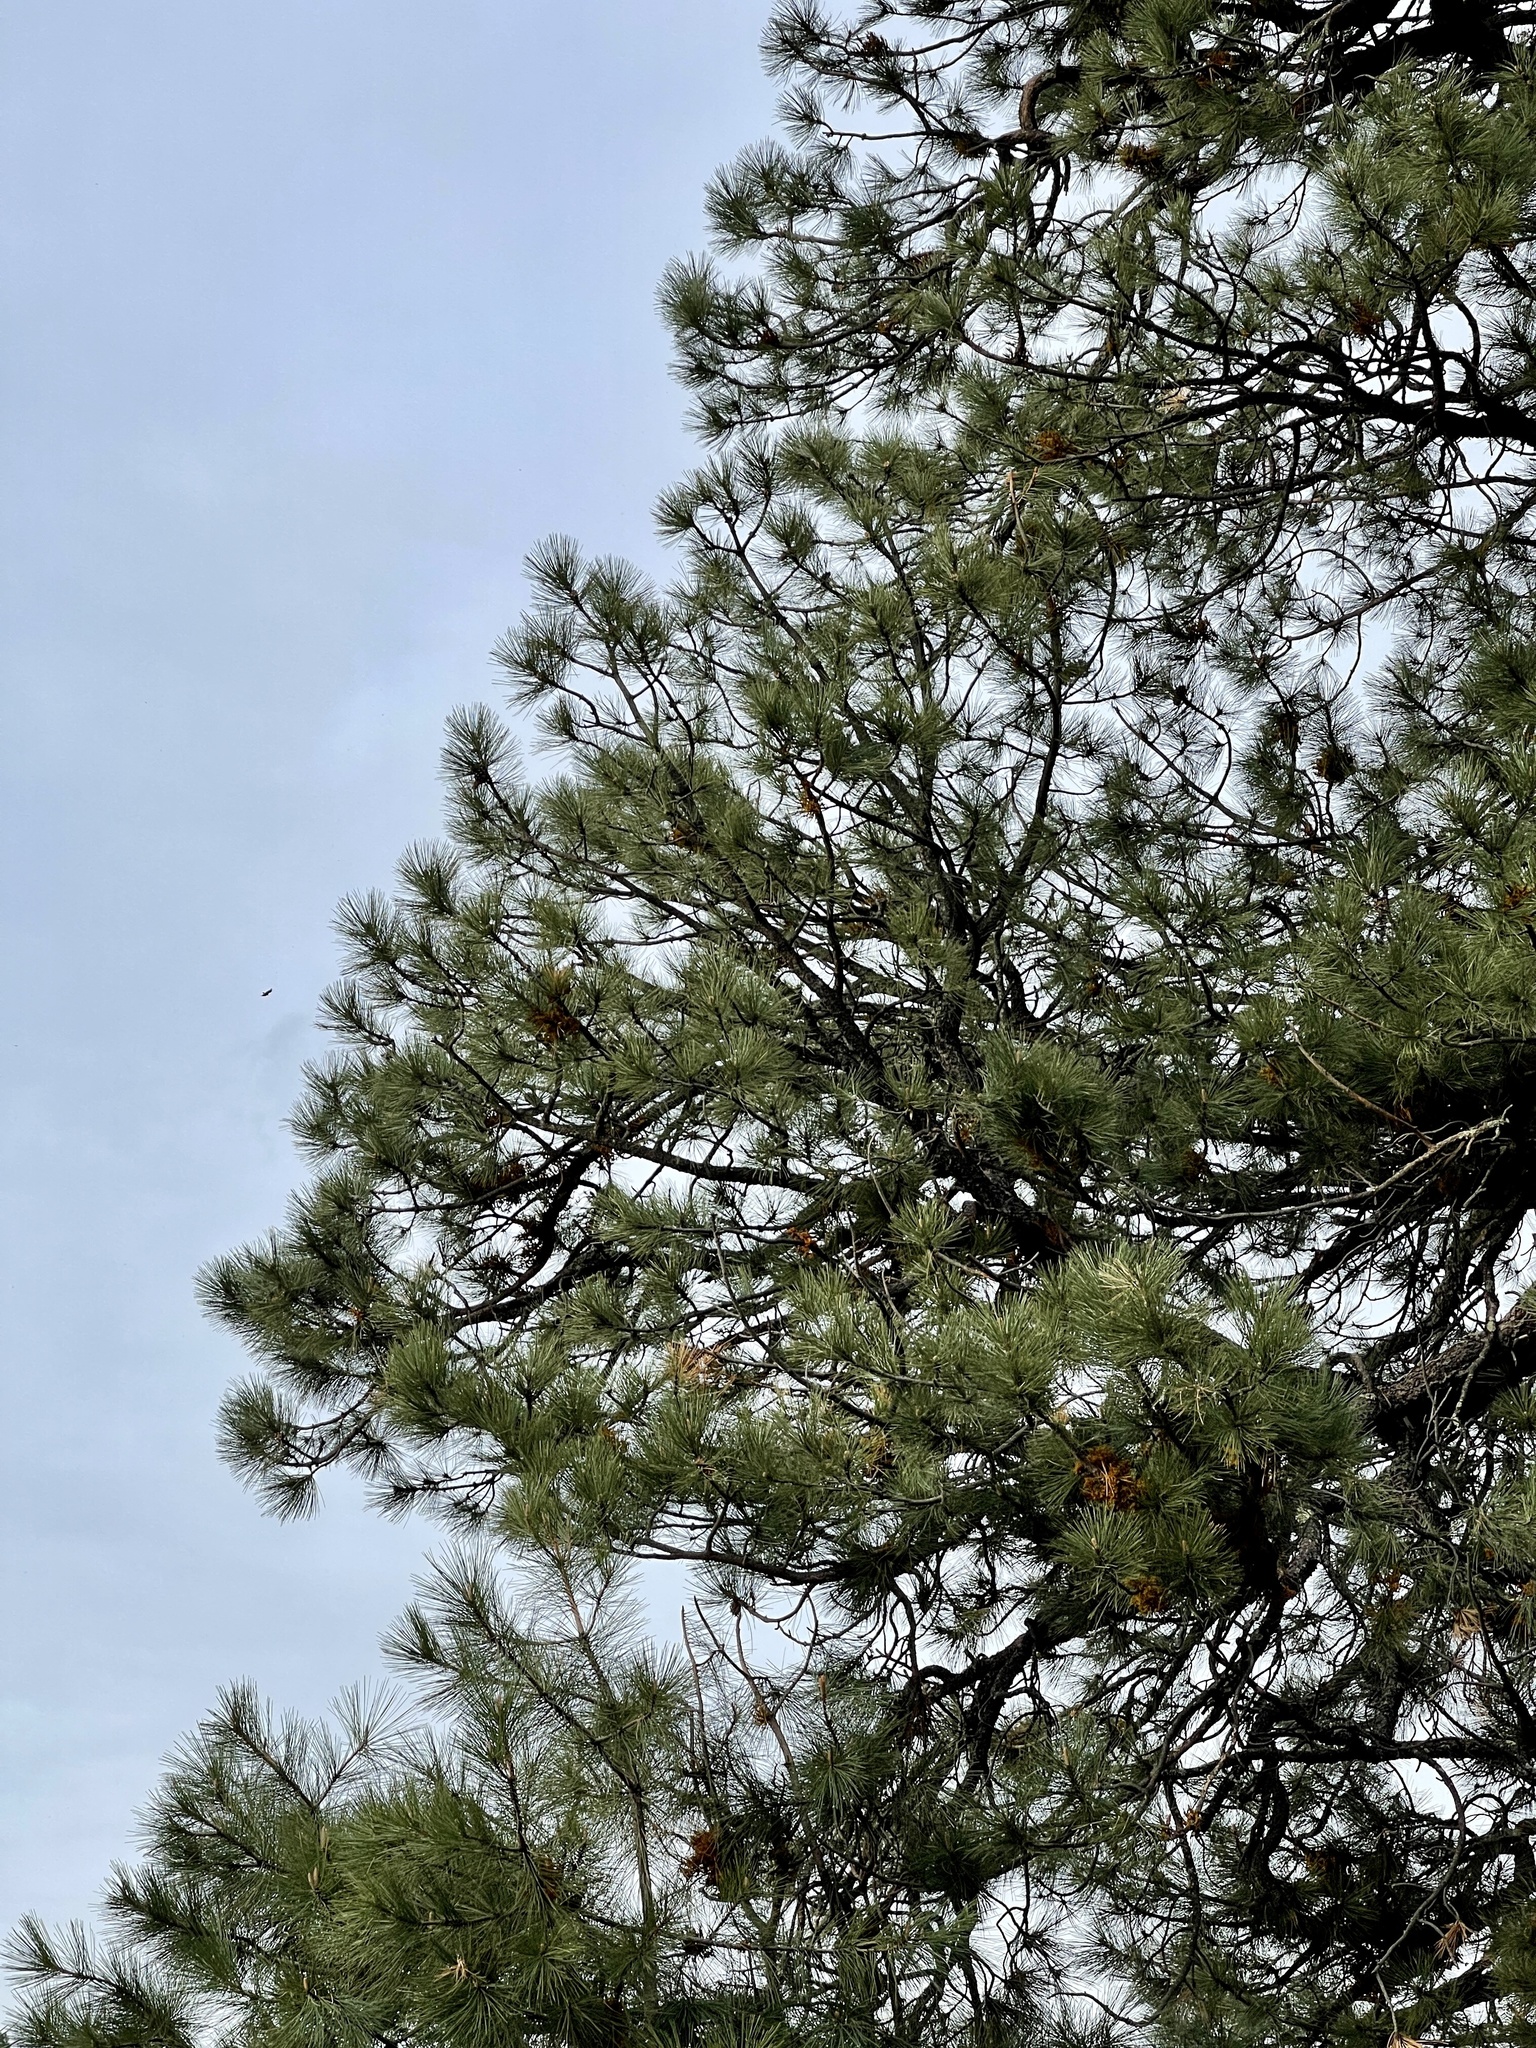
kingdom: Plantae
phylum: Tracheophyta
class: Pinopsida
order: Pinales
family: Pinaceae
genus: Pinus
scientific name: Pinus ponderosa
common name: Western yellow-pine
